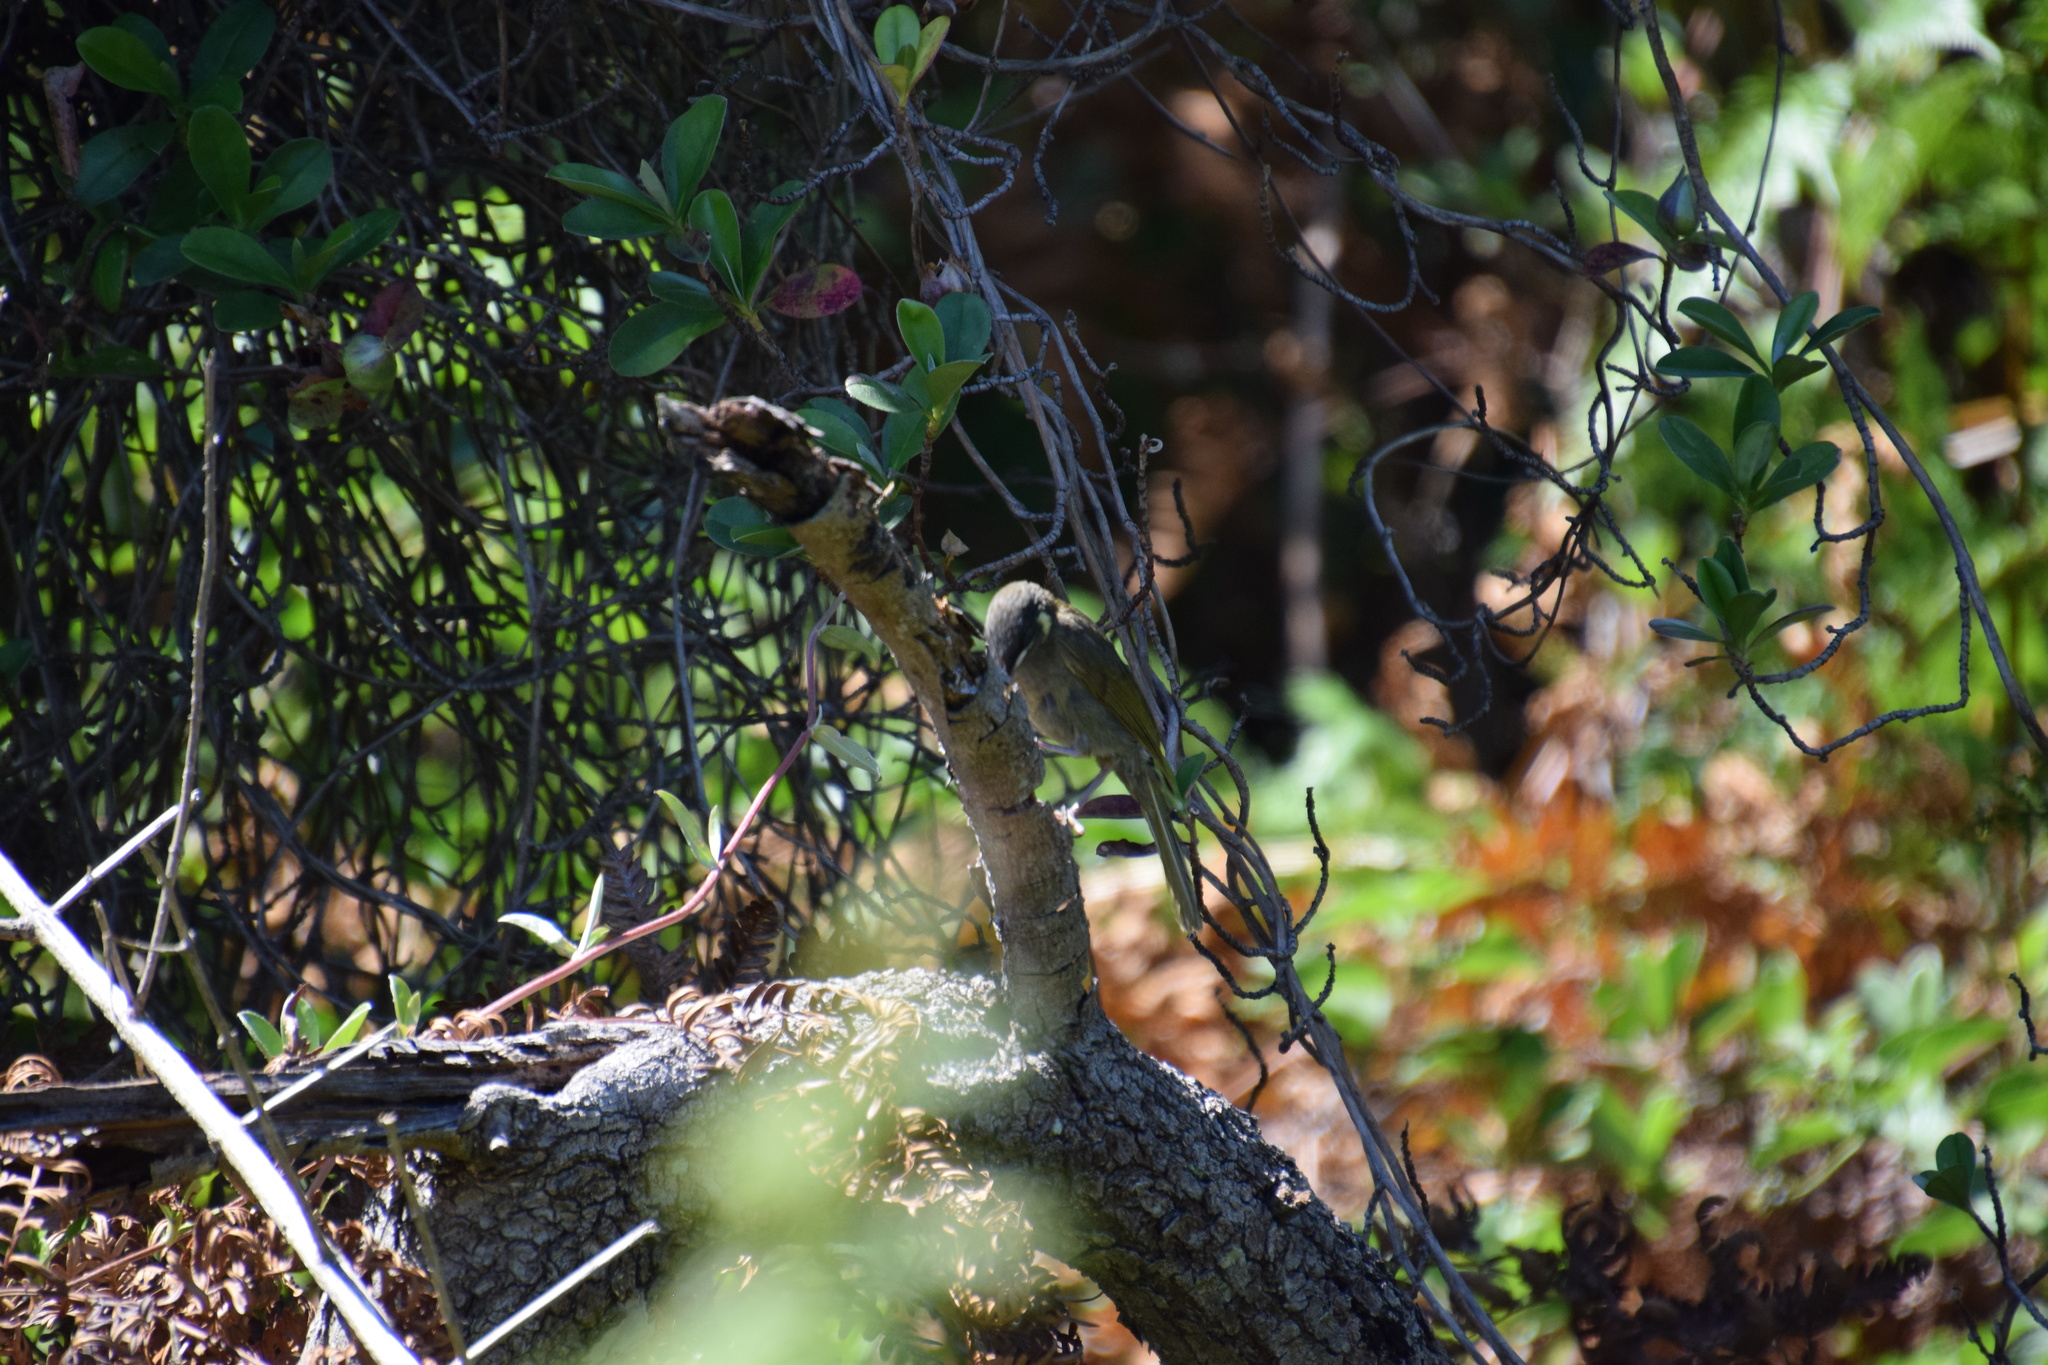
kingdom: Animalia
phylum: Chordata
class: Aves
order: Passeriformes
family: Meliphagidae
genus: Meliphaga
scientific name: Meliphaga lewinii
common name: Lewin's honeyeater
